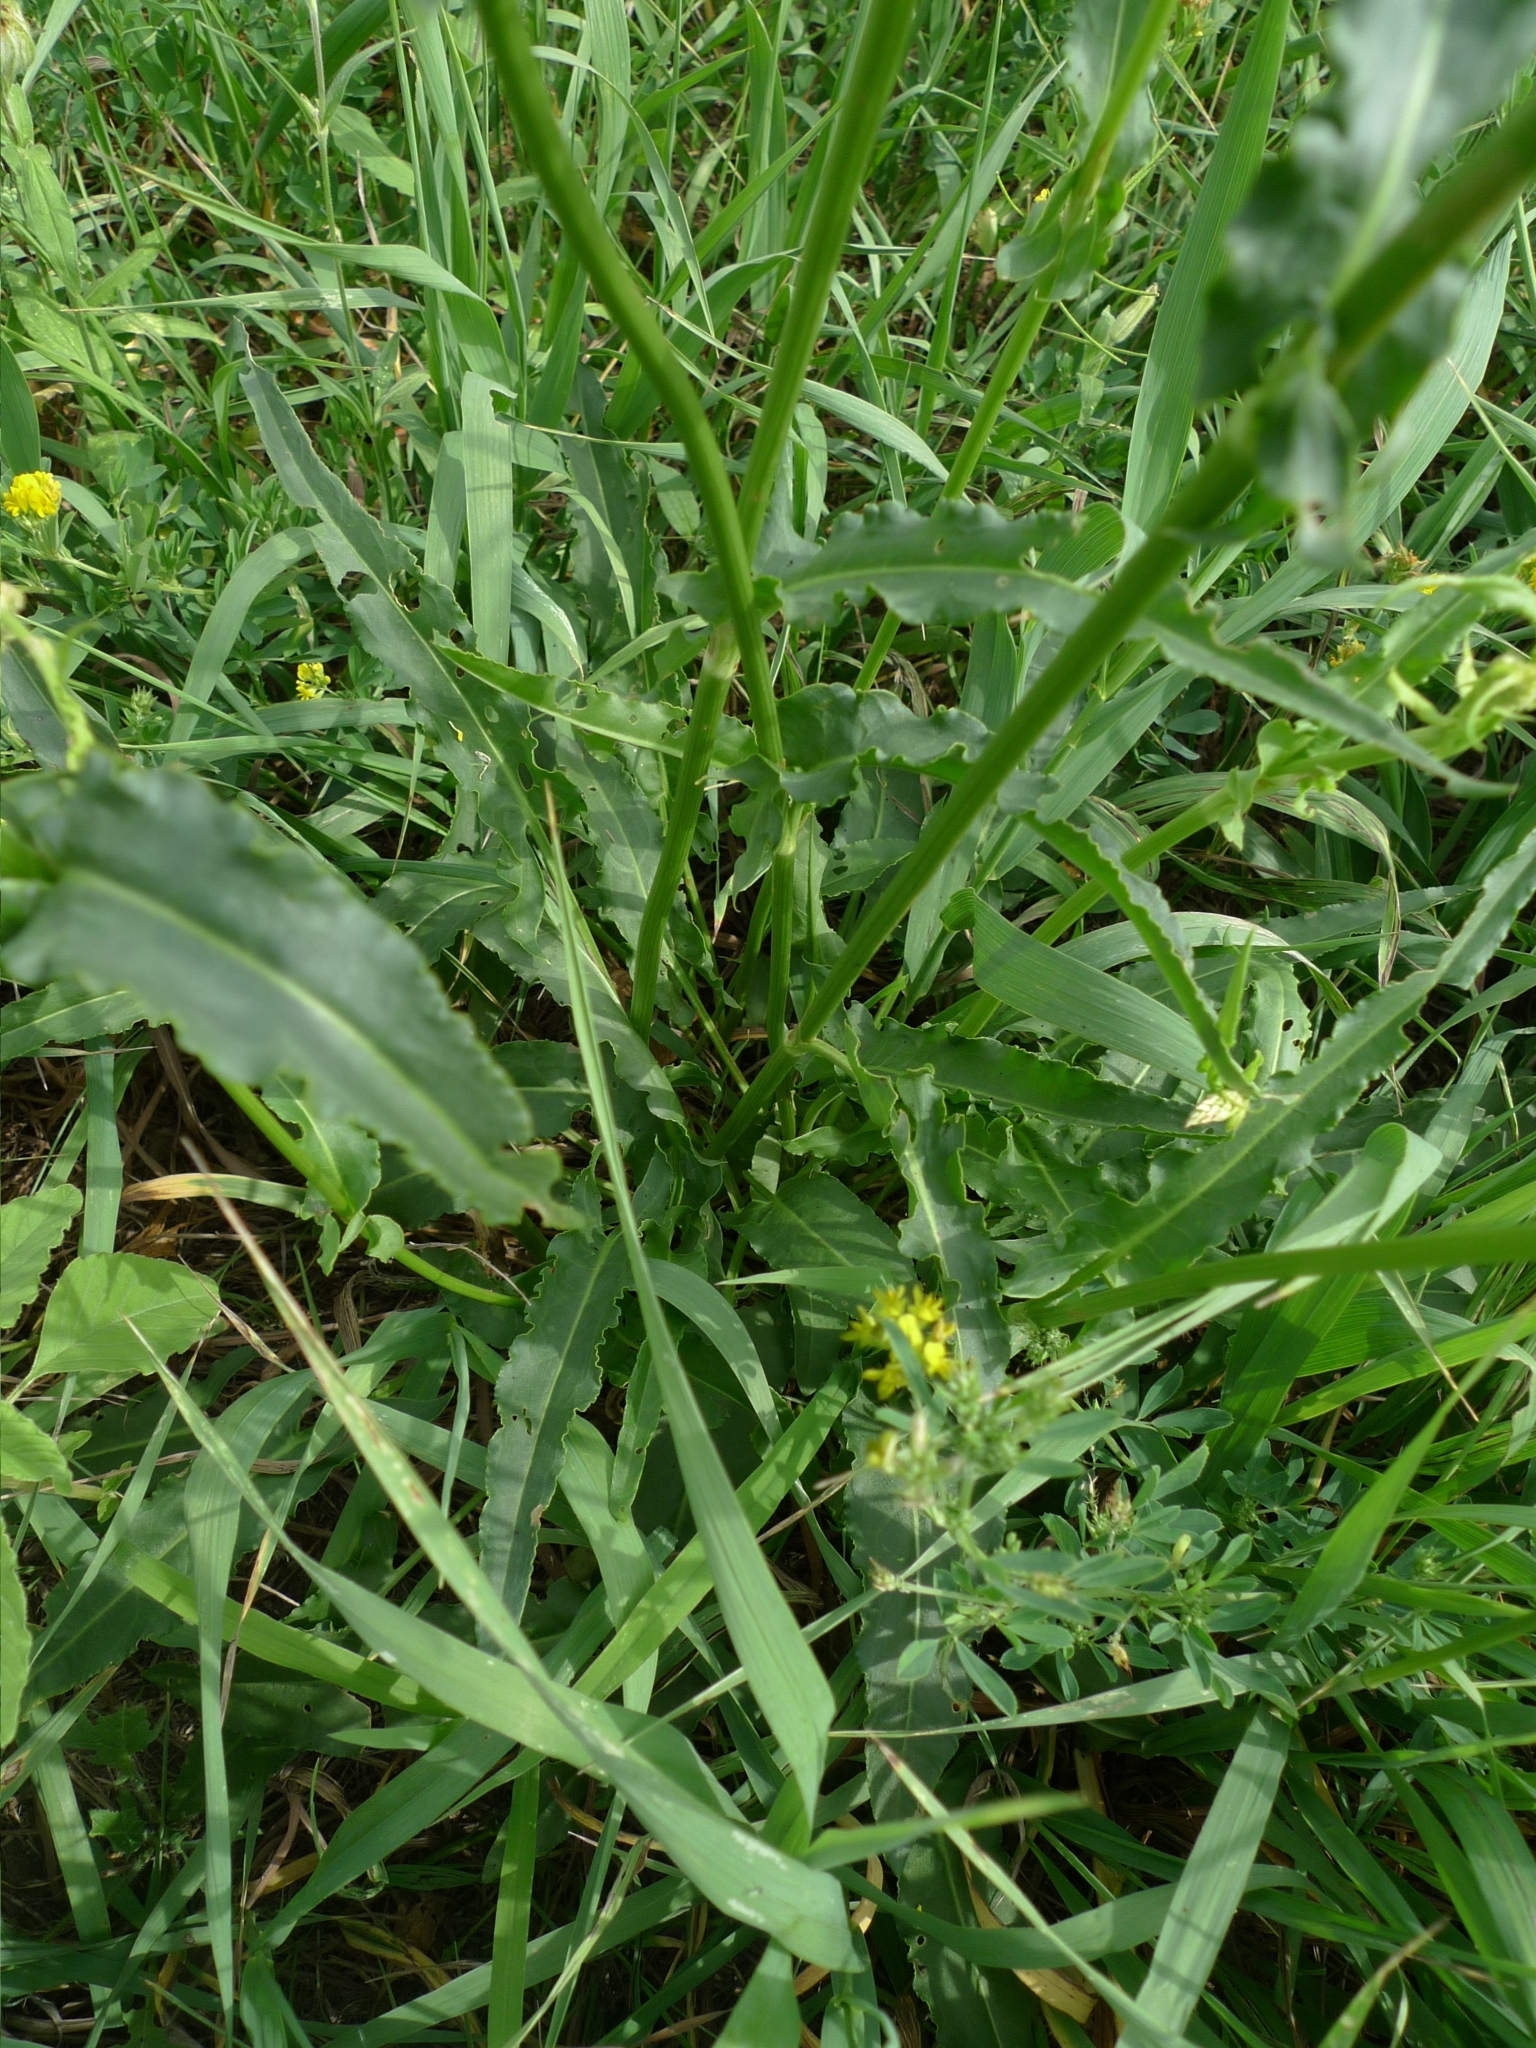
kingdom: Plantae
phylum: Tracheophyta
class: Magnoliopsida
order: Asterales
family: Asteraceae
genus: Cichorium
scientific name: Cichorium intybus
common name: Chicory
